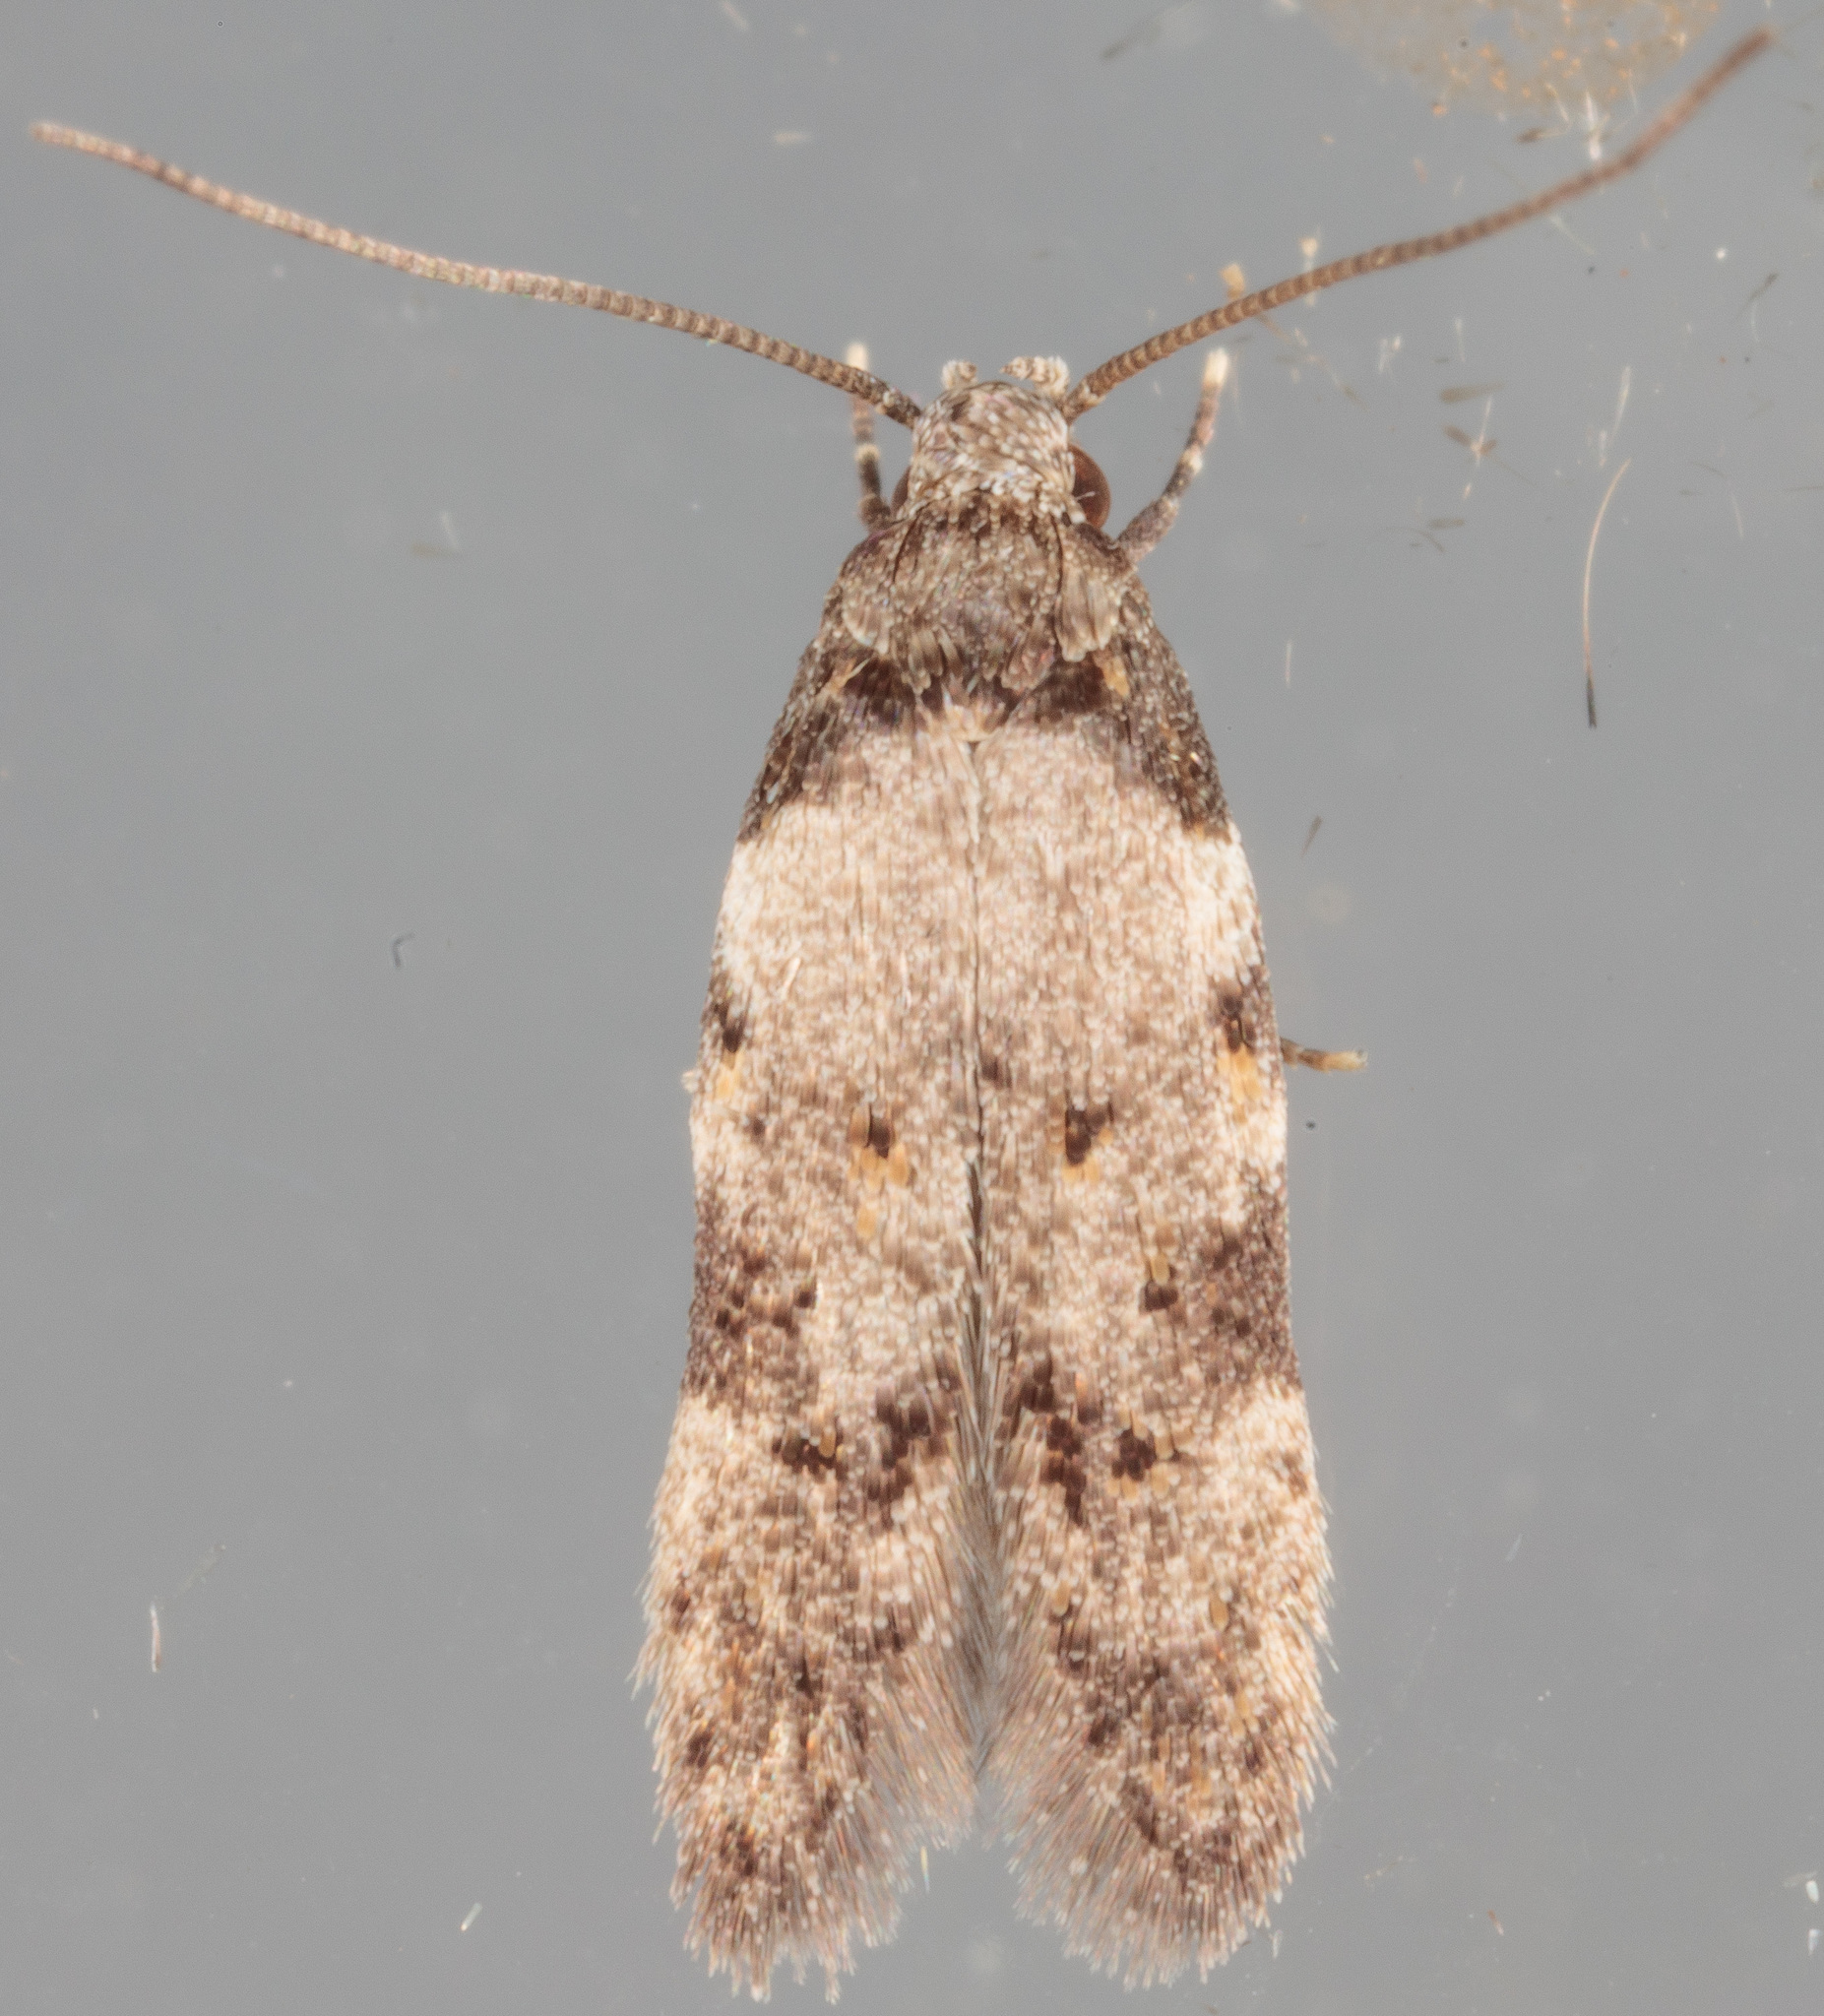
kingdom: Animalia
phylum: Arthropoda
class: Insecta
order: Lepidoptera
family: Autostichidae
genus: Taygete
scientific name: Taygete attributella
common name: Triangle-marked twirler moth
